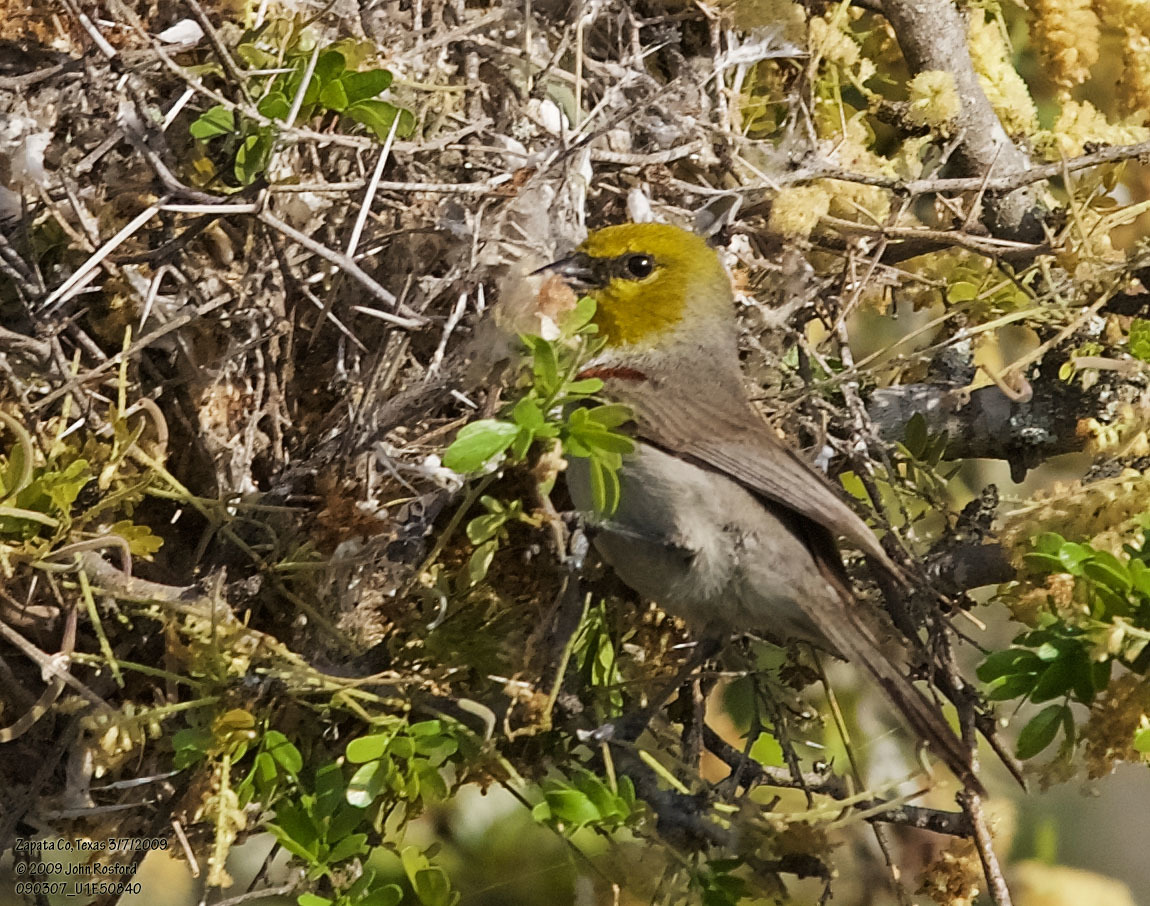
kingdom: Animalia
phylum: Chordata
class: Aves
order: Passeriformes
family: Remizidae
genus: Auriparus
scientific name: Auriparus flaviceps
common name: Verdin
